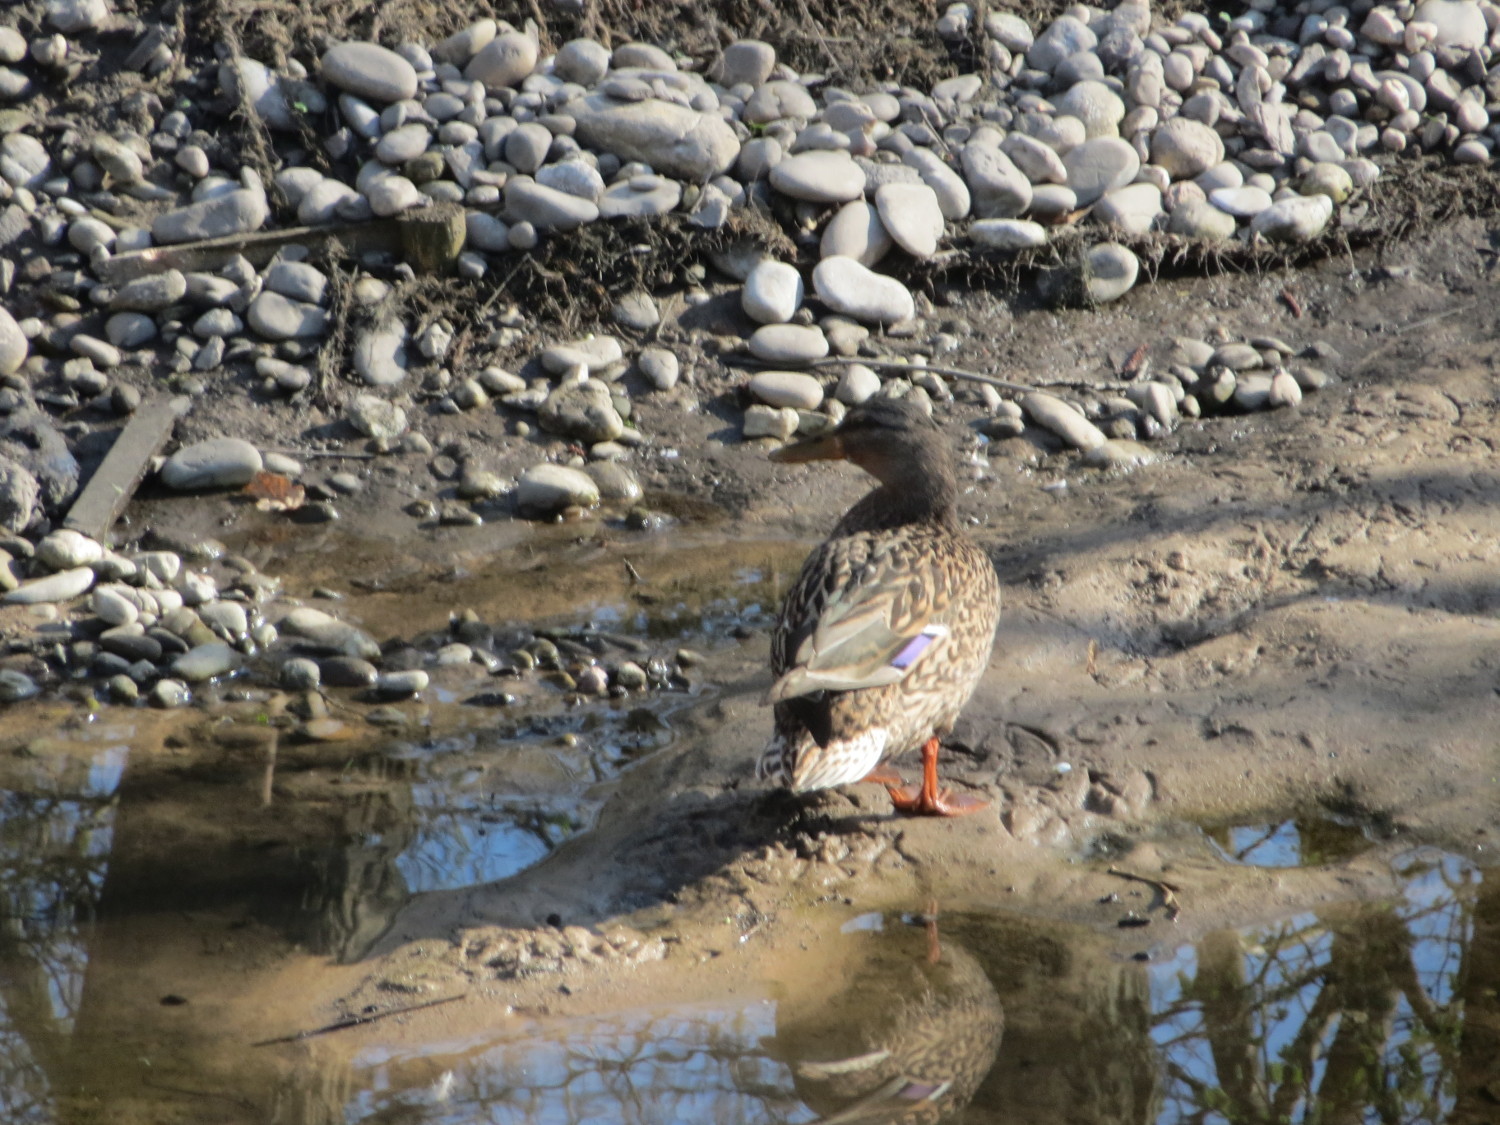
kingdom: Animalia
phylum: Chordata
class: Aves
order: Anseriformes
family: Anatidae
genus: Anas
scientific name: Anas platyrhynchos
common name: Mallard
